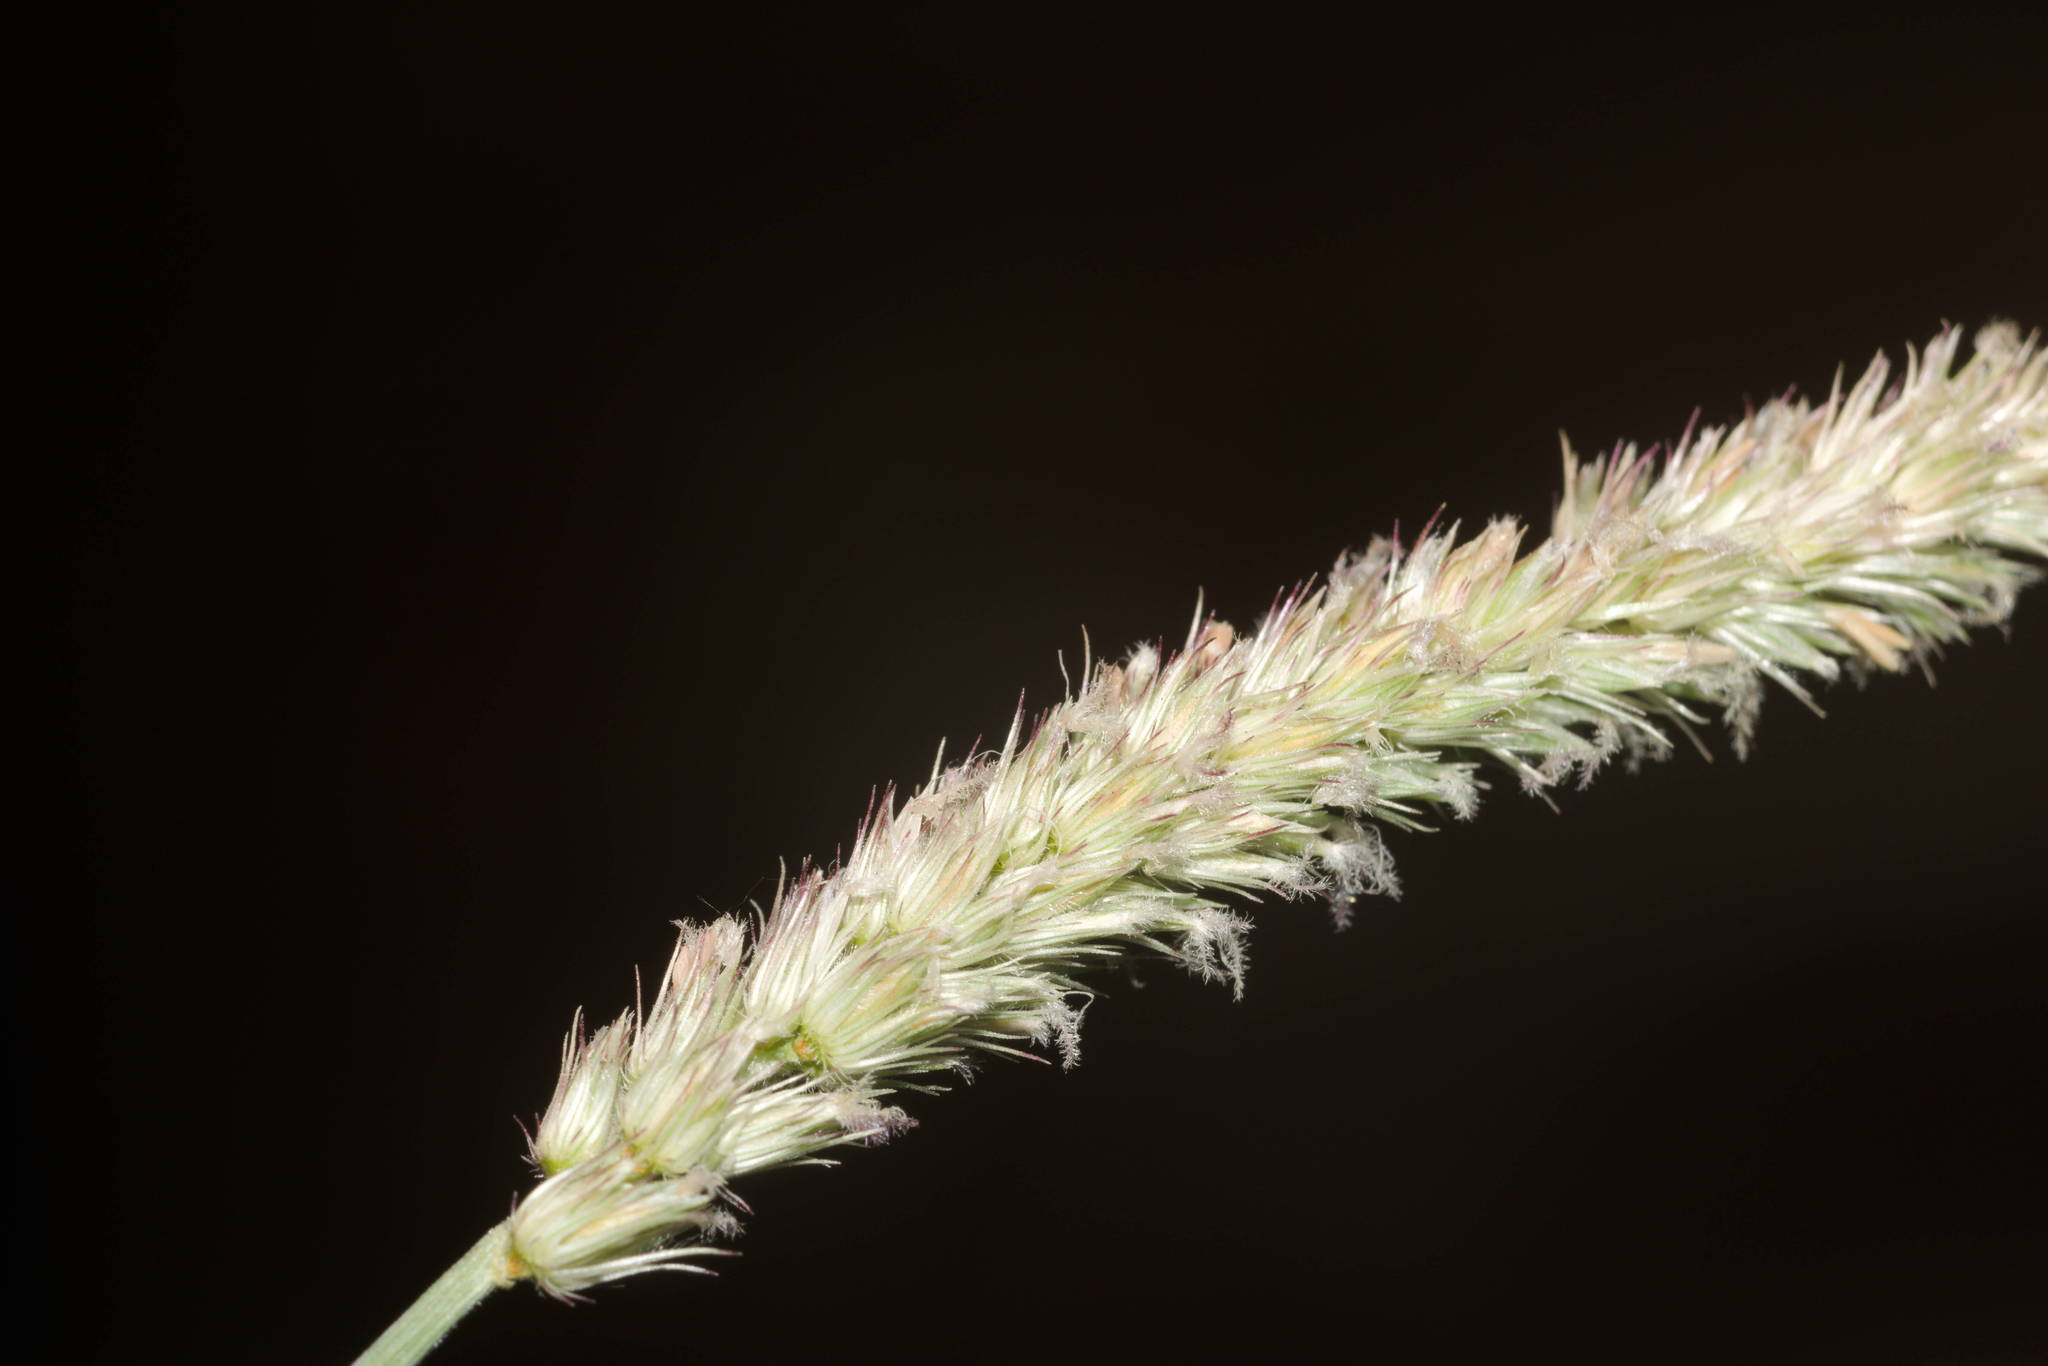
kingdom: Plantae
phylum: Tracheophyta
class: Liliopsida
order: Poales
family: Poaceae
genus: Cenchrus
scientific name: Cenchrus setigerus
